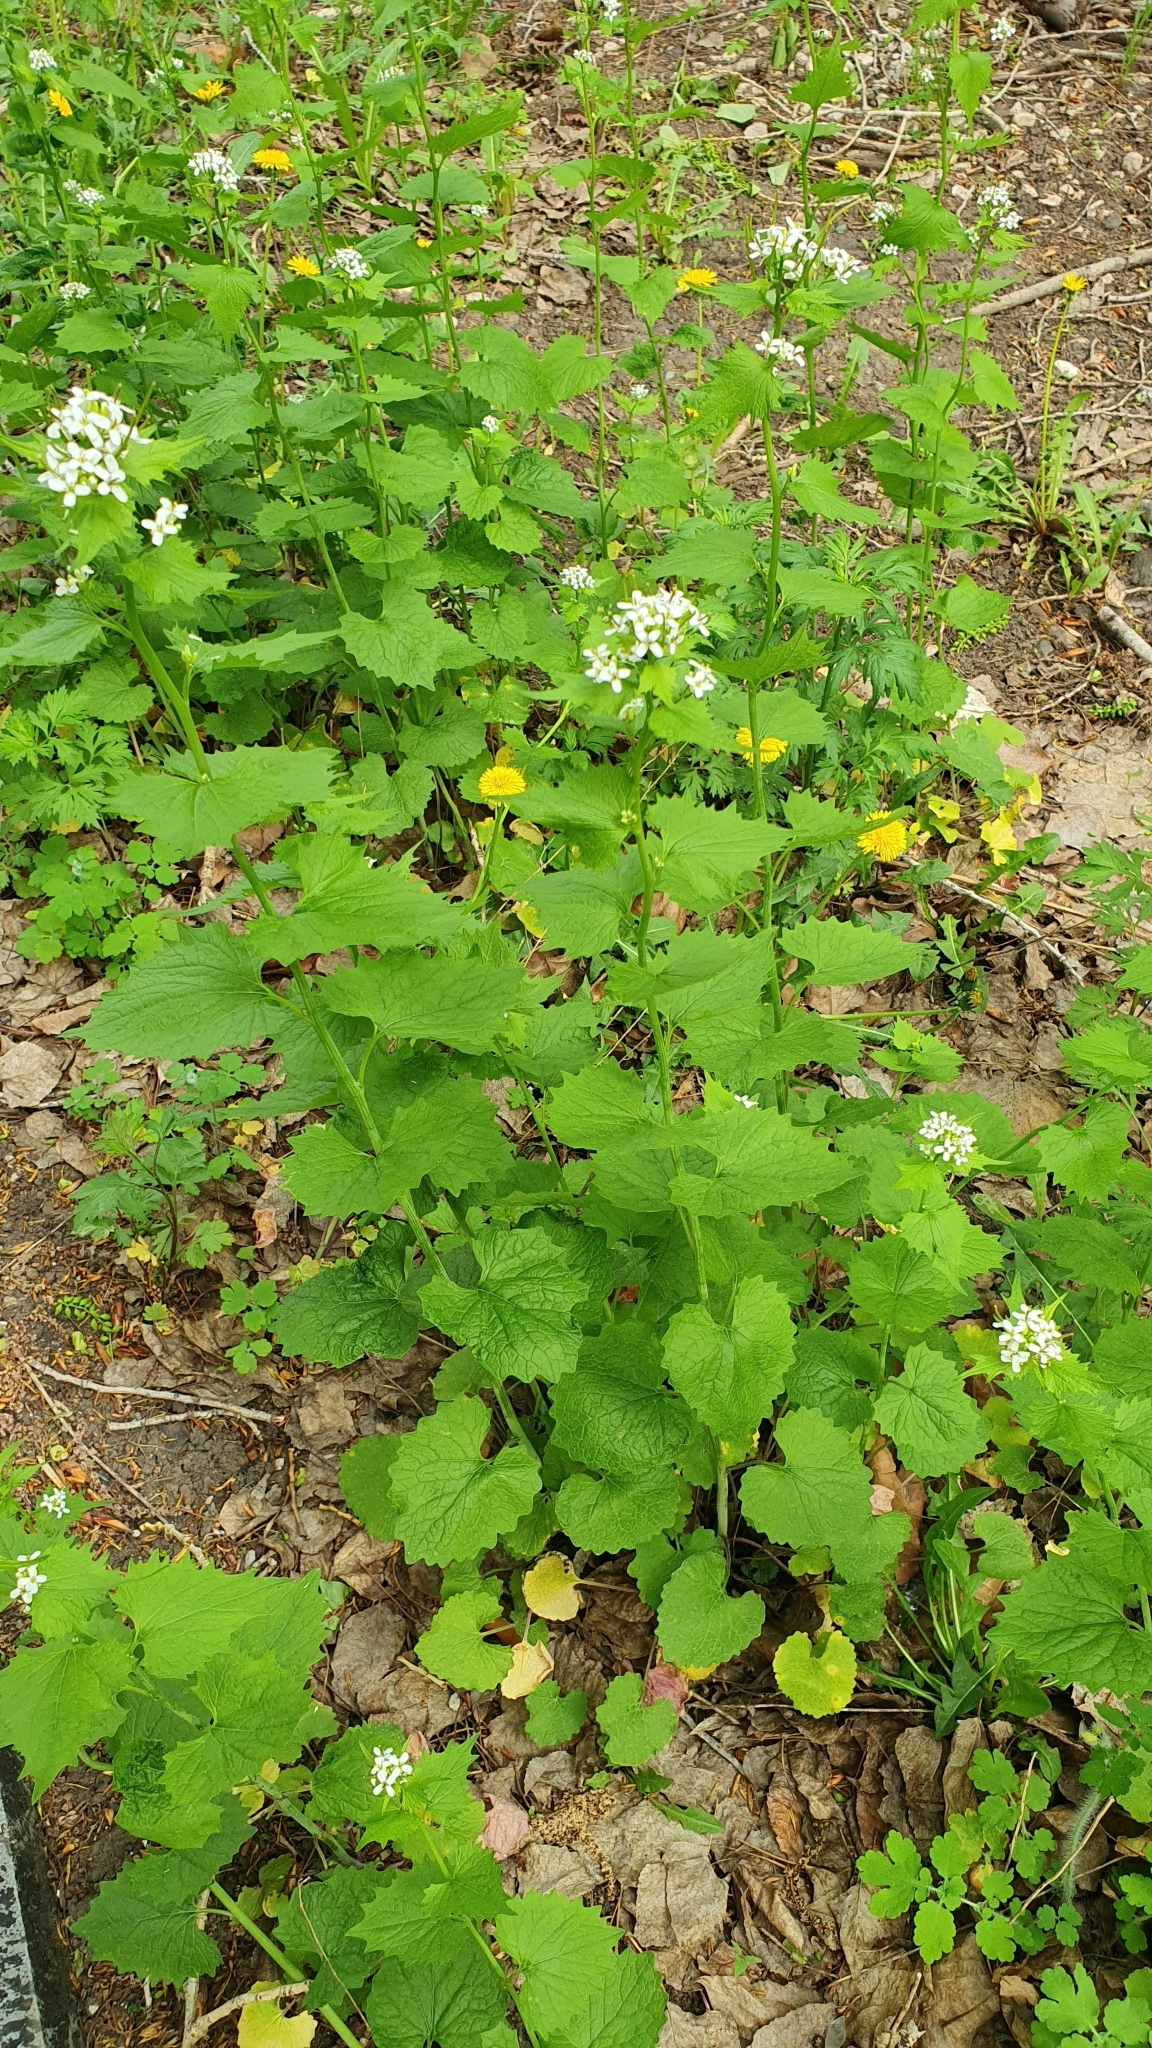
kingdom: Plantae
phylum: Tracheophyta
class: Magnoliopsida
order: Brassicales
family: Brassicaceae
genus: Alliaria
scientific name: Alliaria petiolata
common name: Garlic mustard
